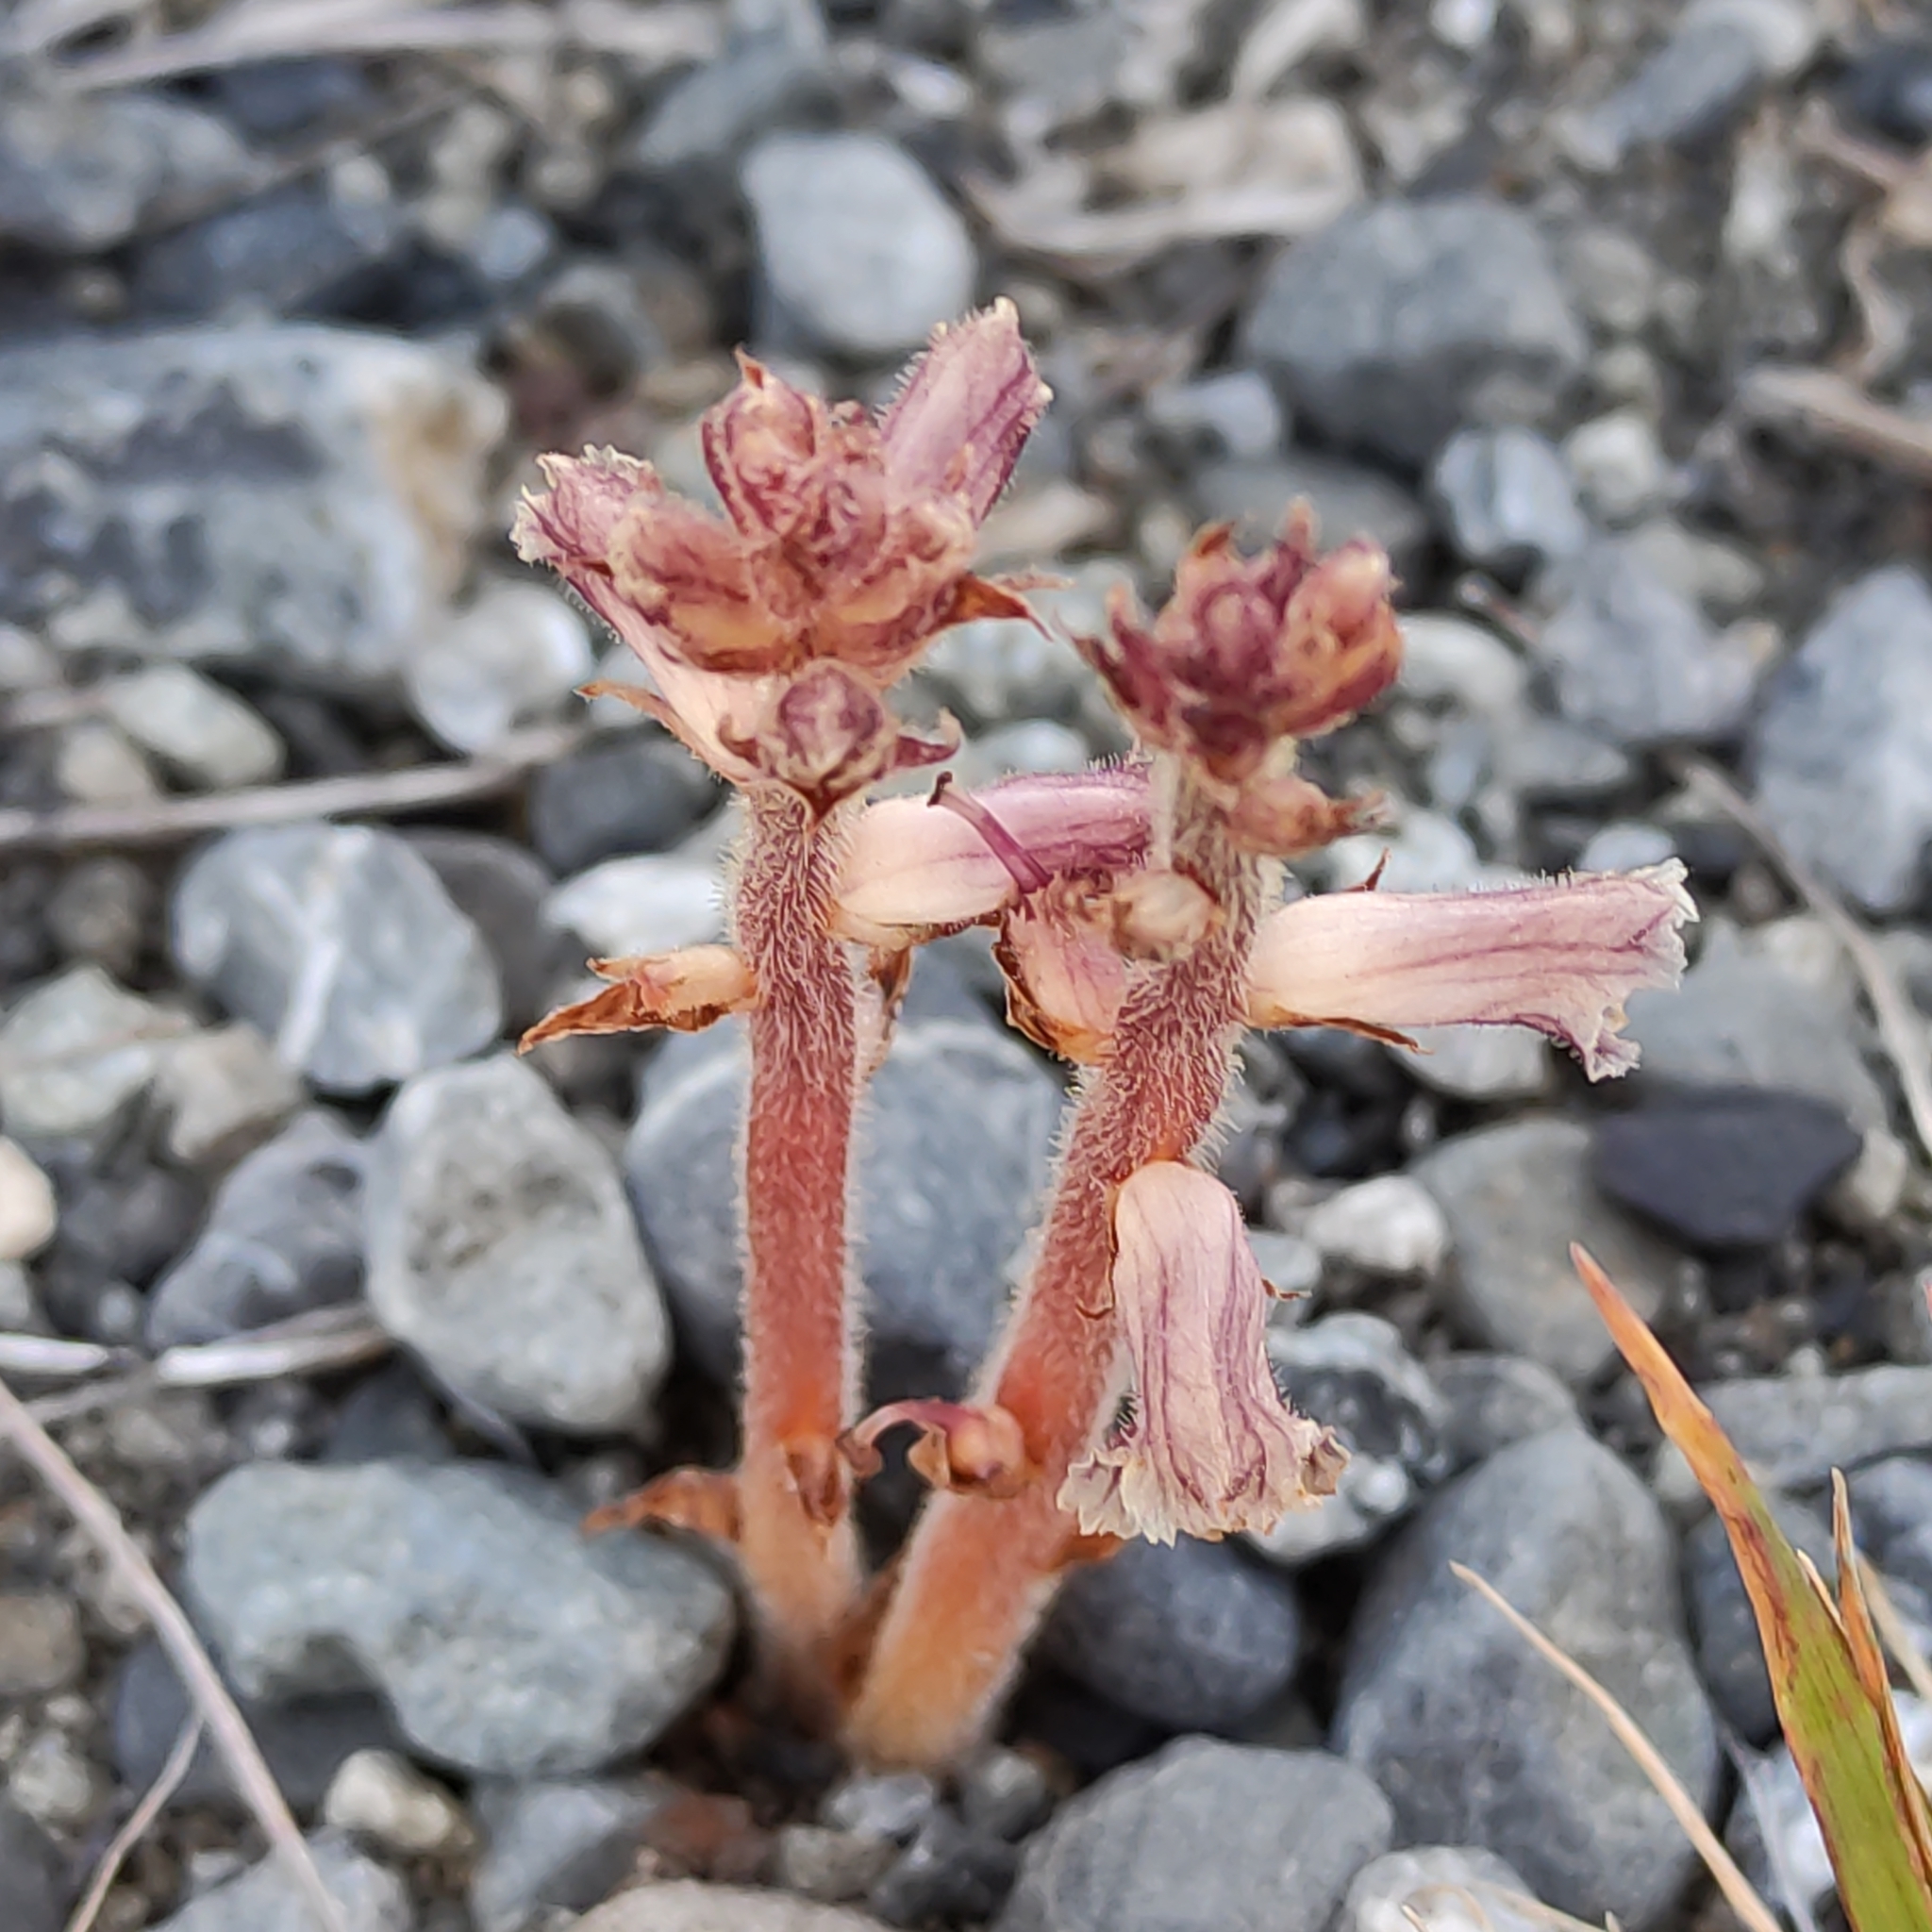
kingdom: Plantae
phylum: Tracheophyta
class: Magnoliopsida
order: Lamiales
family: Orobanchaceae
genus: Orobanche
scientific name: Orobanche minor
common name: Common broomrape
